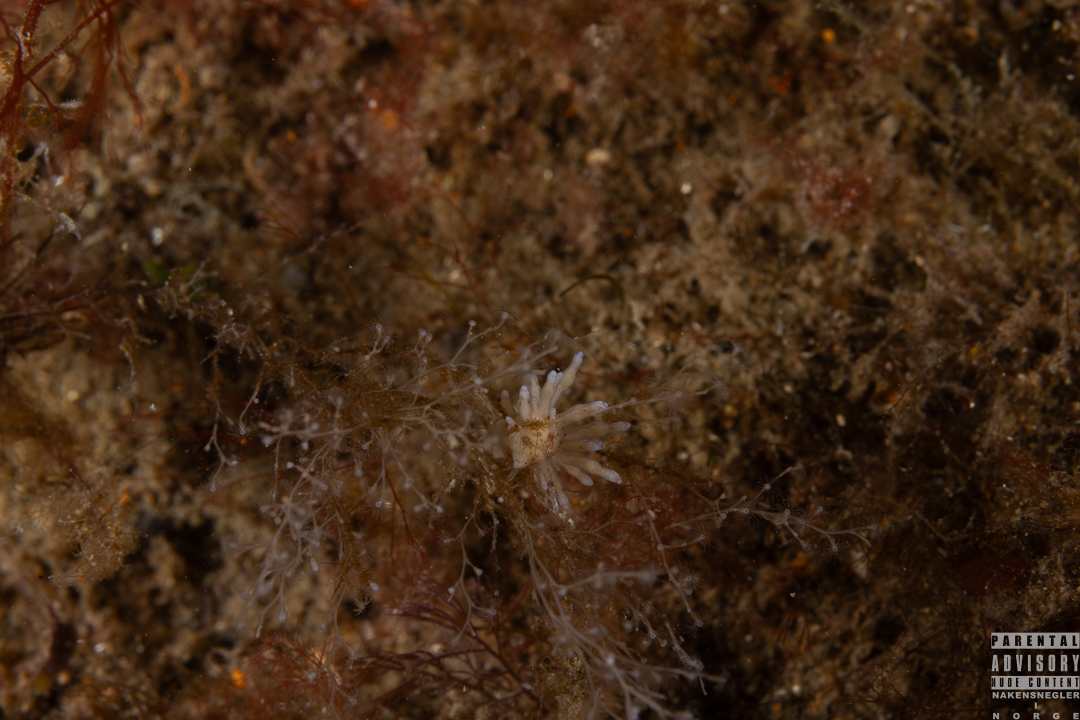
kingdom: Animalia
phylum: Mollusca
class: Gastropoda
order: Nudibranchia
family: Eubranchidae
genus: Eubranchus
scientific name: Eubranchus rupium
